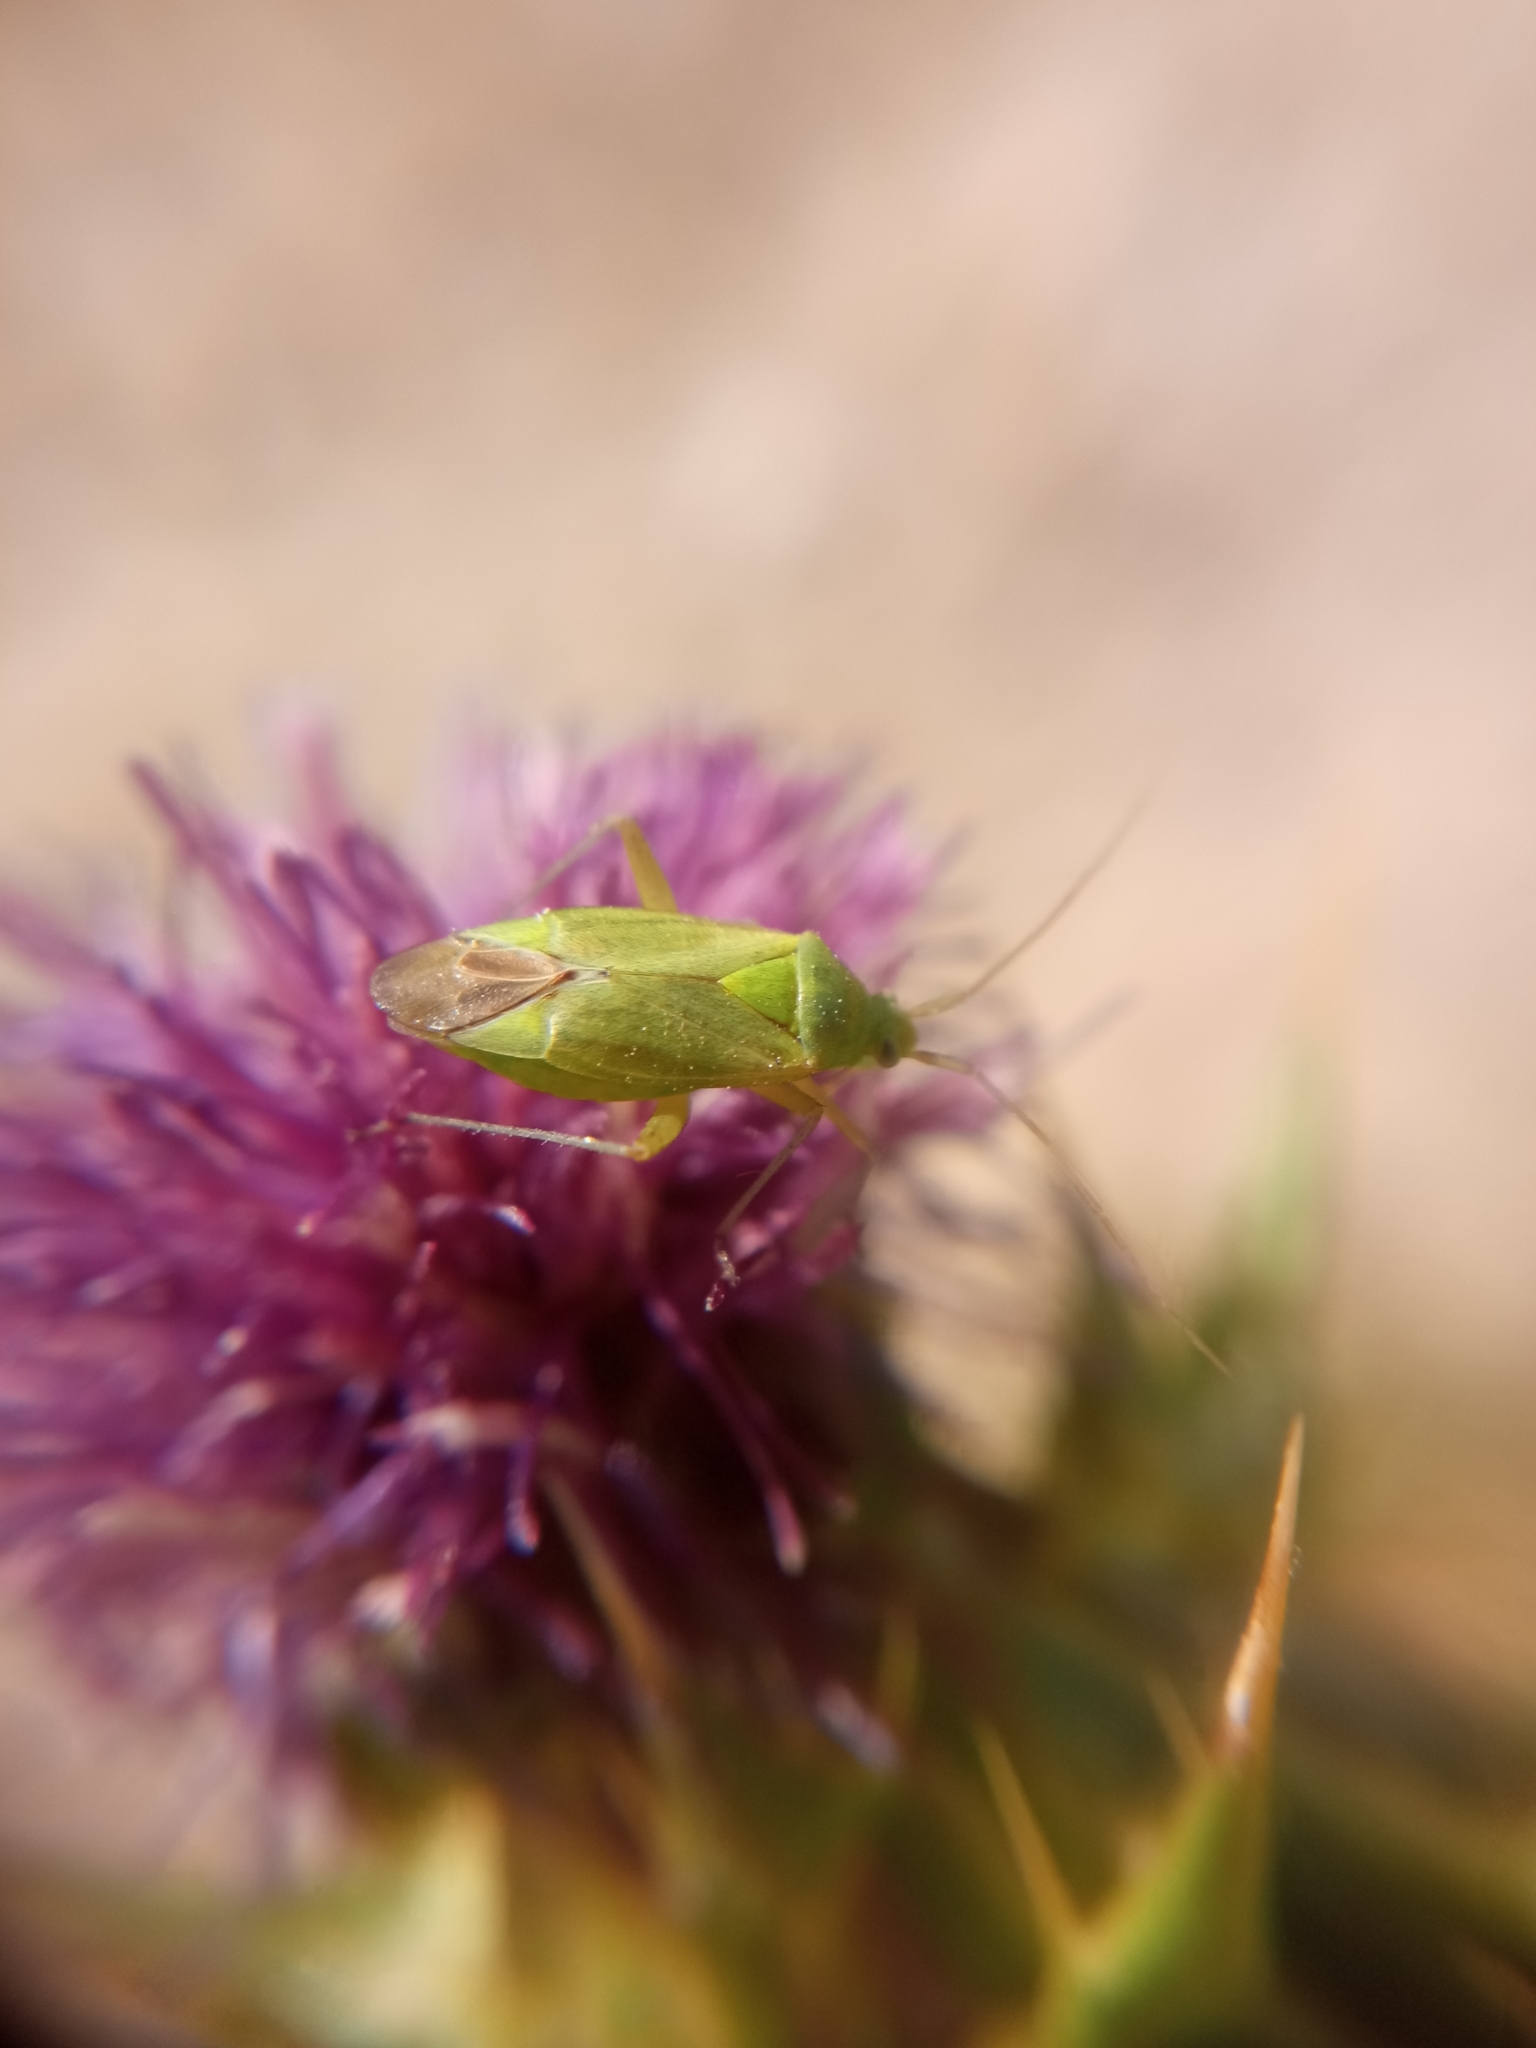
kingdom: Animalia
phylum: Arthropoda
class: Insecta
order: Hemiptera
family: Miridae
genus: Closterotomus
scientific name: Closterotomus norvegicus
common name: Plant bug
